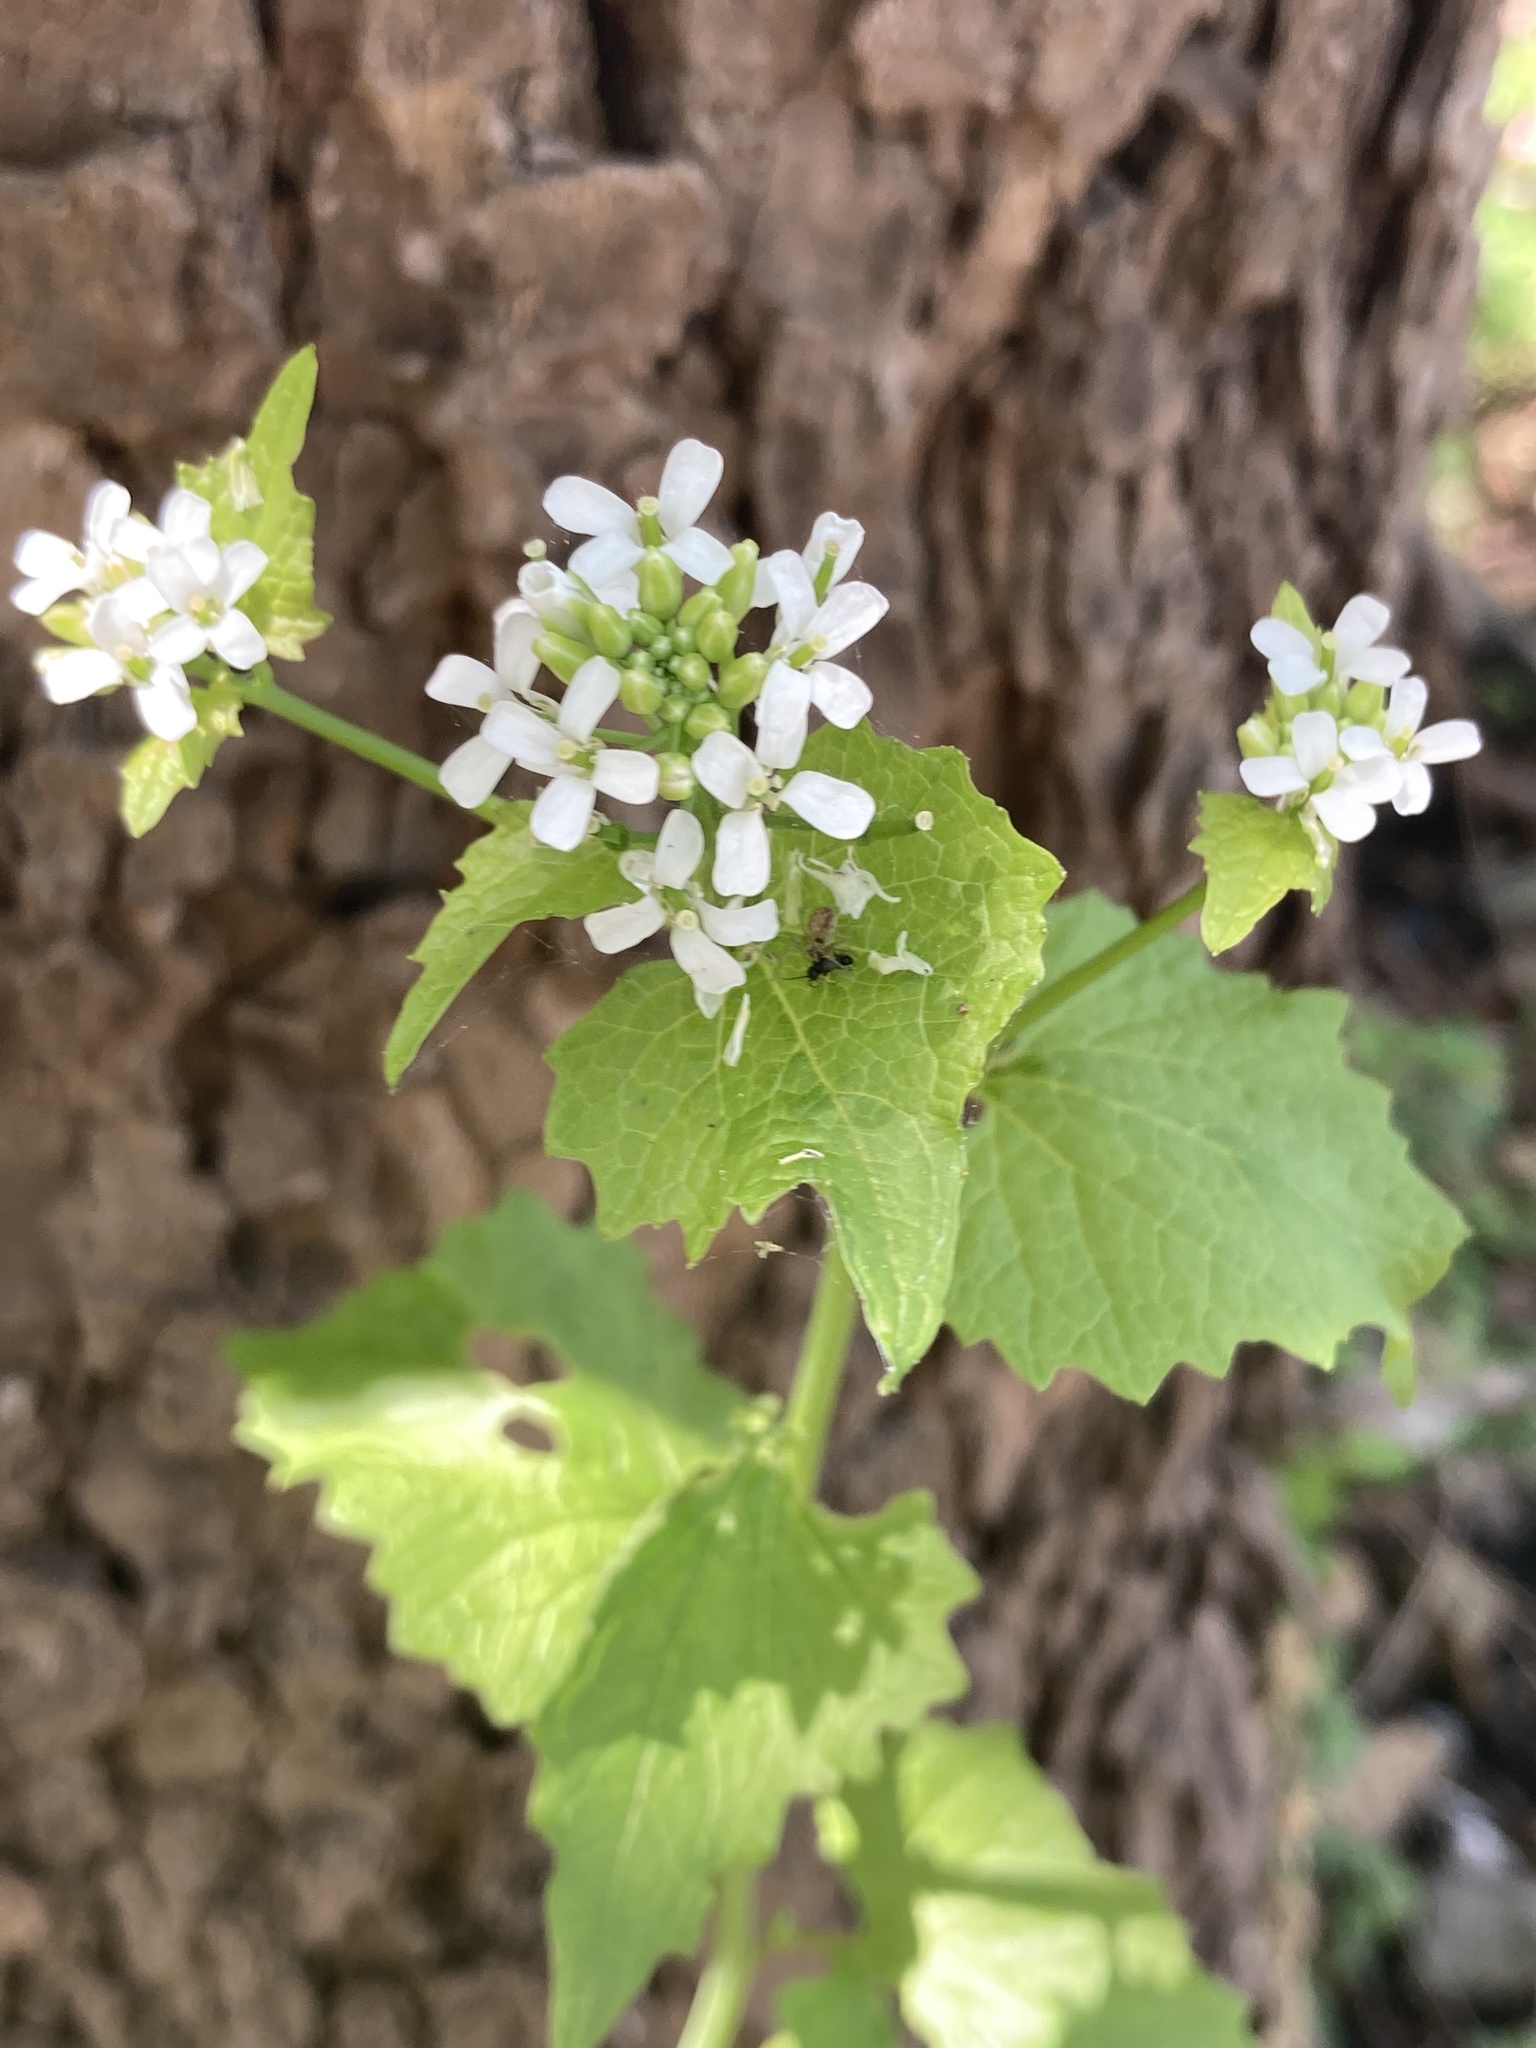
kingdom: Plantae
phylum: Tracheophyta
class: Magnoliopsida
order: Brassicales
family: Brassicaceae
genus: Alliaria
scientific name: Alliaria petiolata
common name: Garlic mustard
